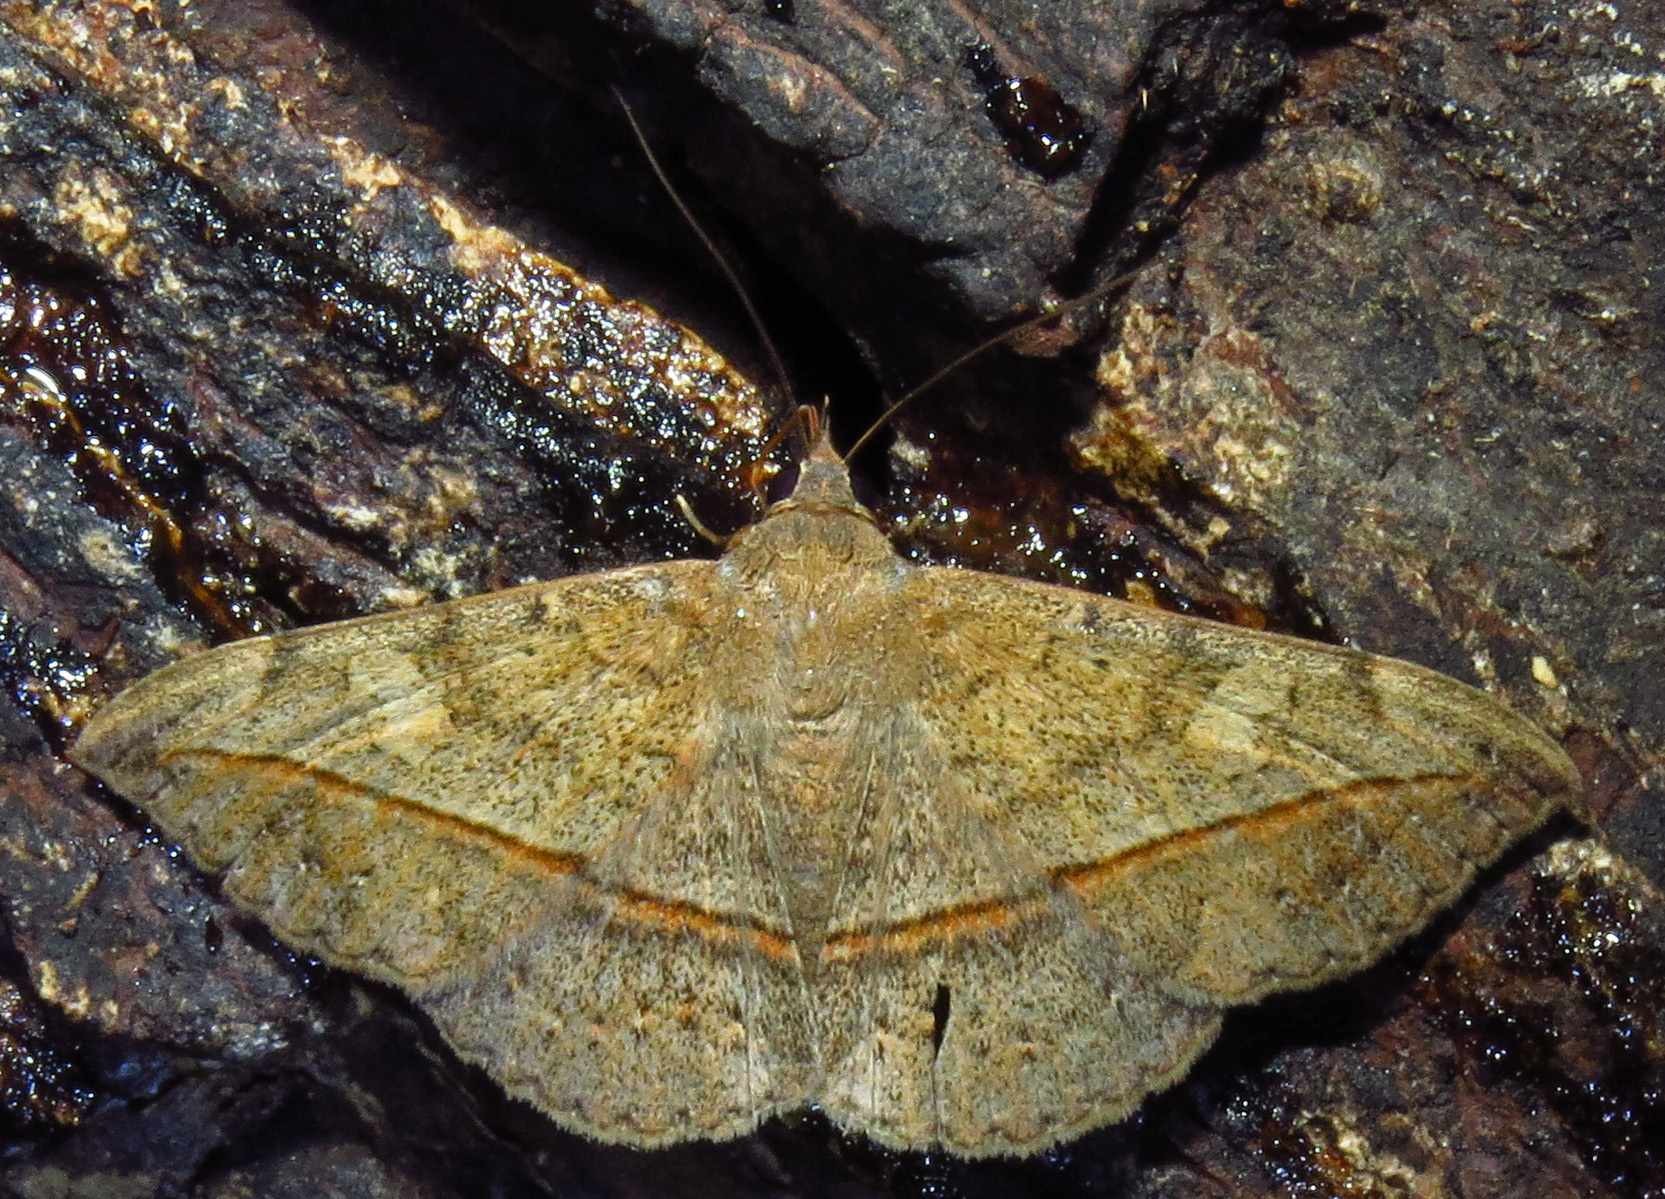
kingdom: Animalia
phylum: Arthropoda
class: Insecta
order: Lepidoptera
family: Erebidae
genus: Anticarsia
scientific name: Anticarsia gemmatalis
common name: Cutworm moth
